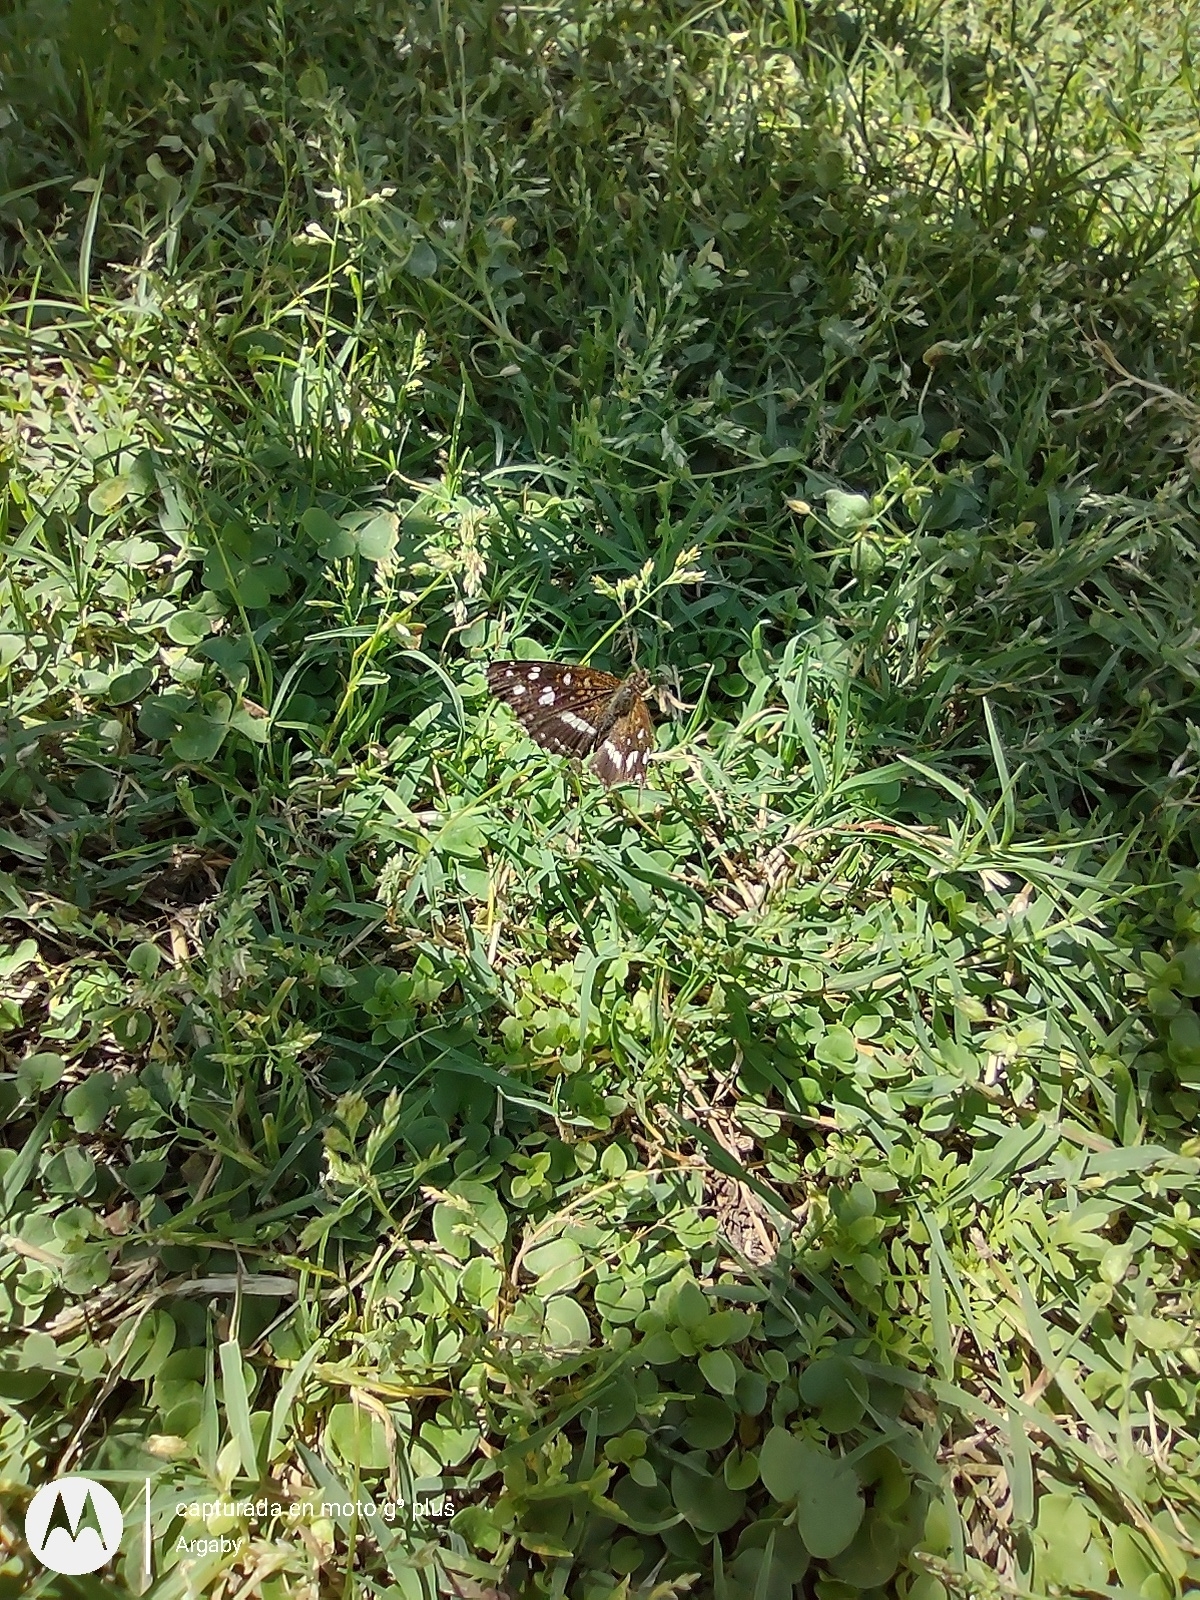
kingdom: Animalia
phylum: Arthropoda
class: Insecta
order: Lepidoptera
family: Nymphalidae
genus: Ortilia
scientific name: Ortilia ithra
